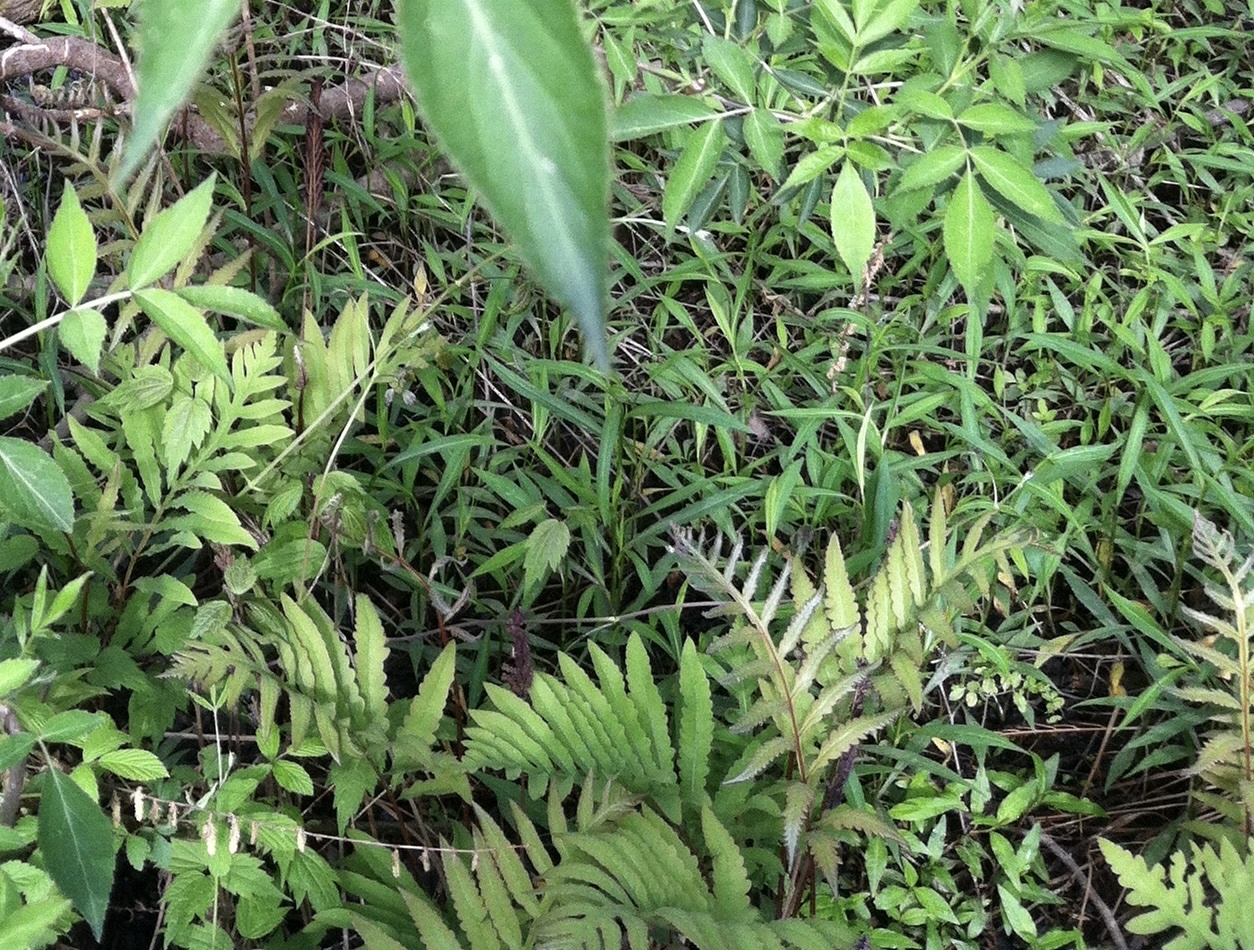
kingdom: Plantae
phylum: Tracheophyta
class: Polypodiopsida
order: Polypodiales
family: Onocleaceae
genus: Onoclea
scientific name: Onoclea sensibilis
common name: Sensitive fern
